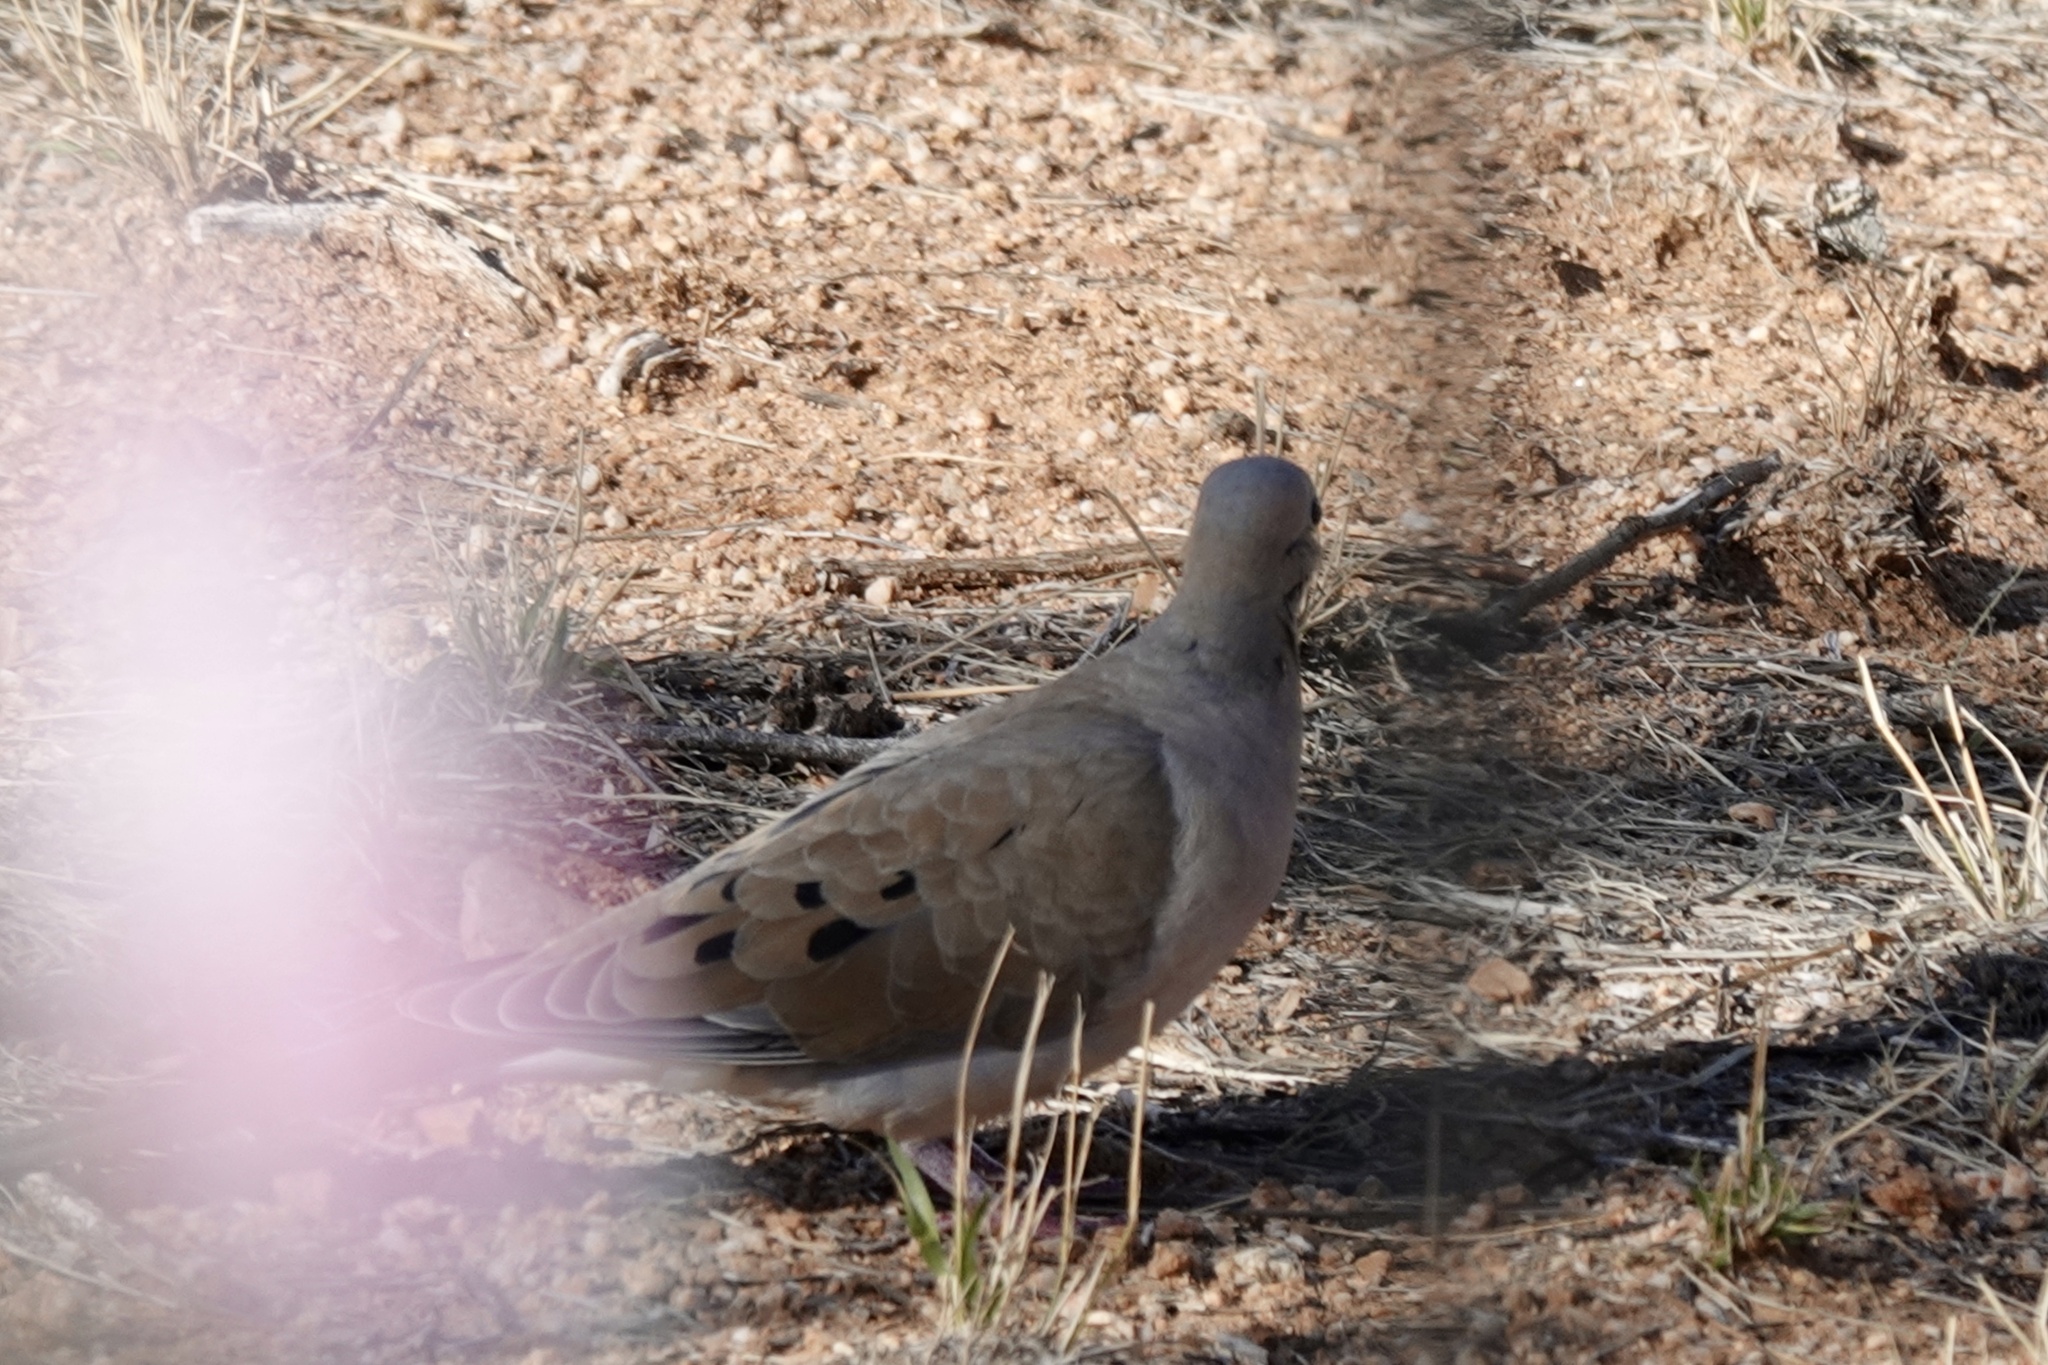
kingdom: Animalia
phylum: Chordata
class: Aves
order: Columbiformes
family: Columbidae
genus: Zenaida
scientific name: Zenaida macroura
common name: Mourning dove
